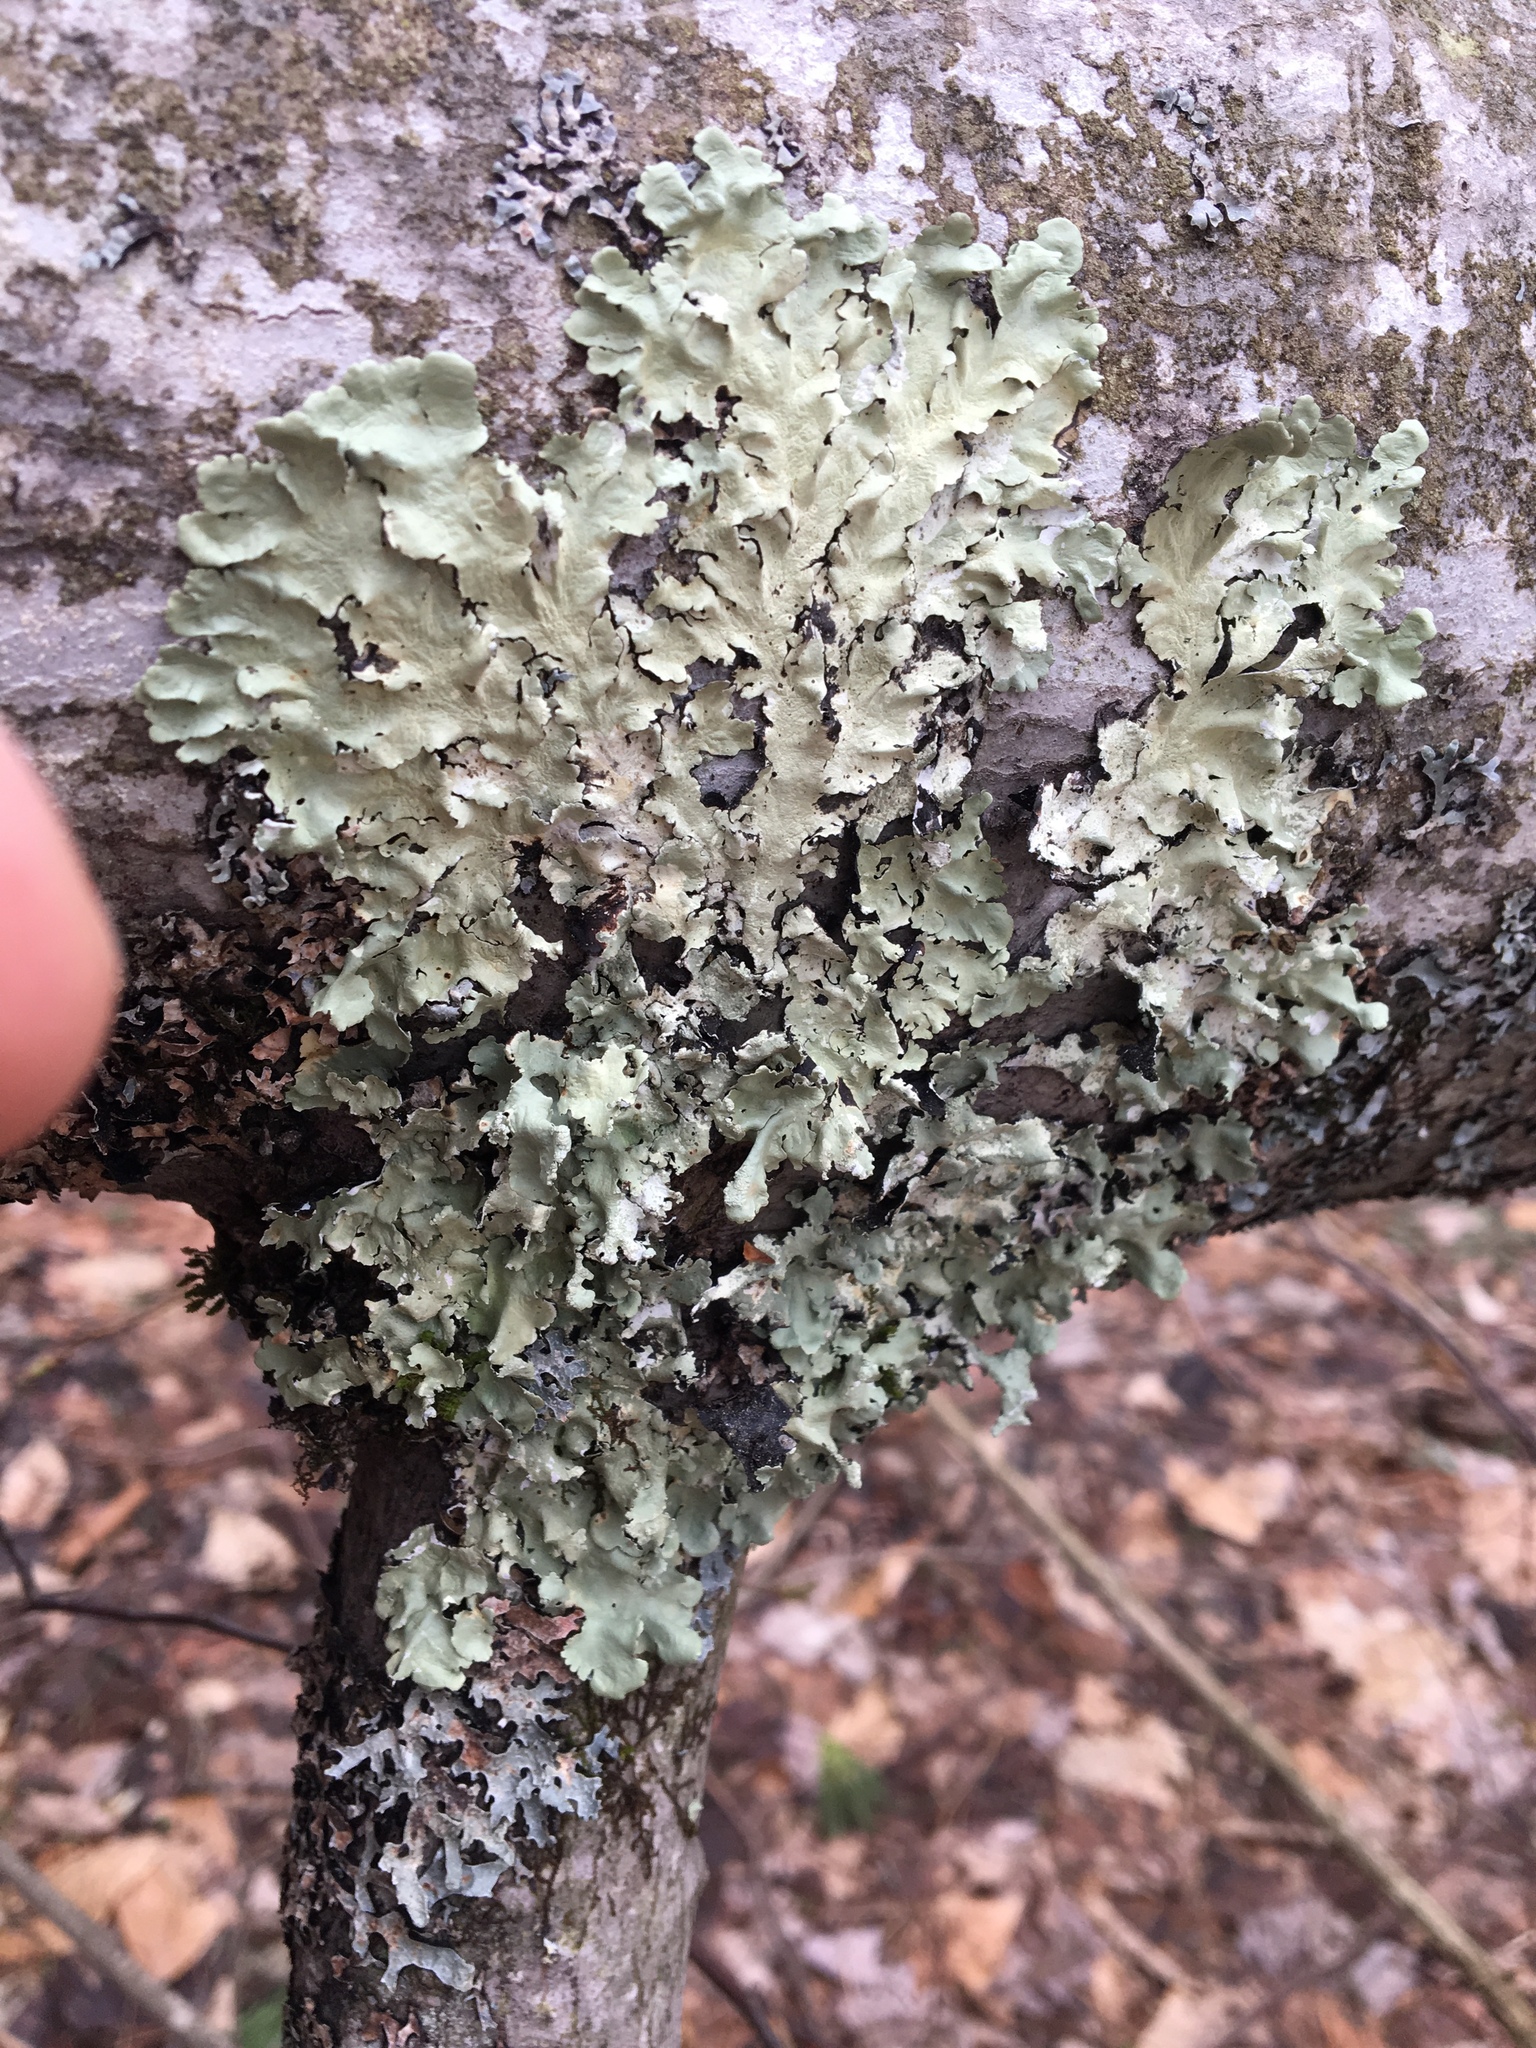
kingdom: Fungi
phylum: Ascomycota
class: Lecanoromycetes
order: Lecanorales
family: Parmeliaceae
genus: Flavoparmelia
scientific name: Flavoparmelia caperata
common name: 40-mile per hour lichen
